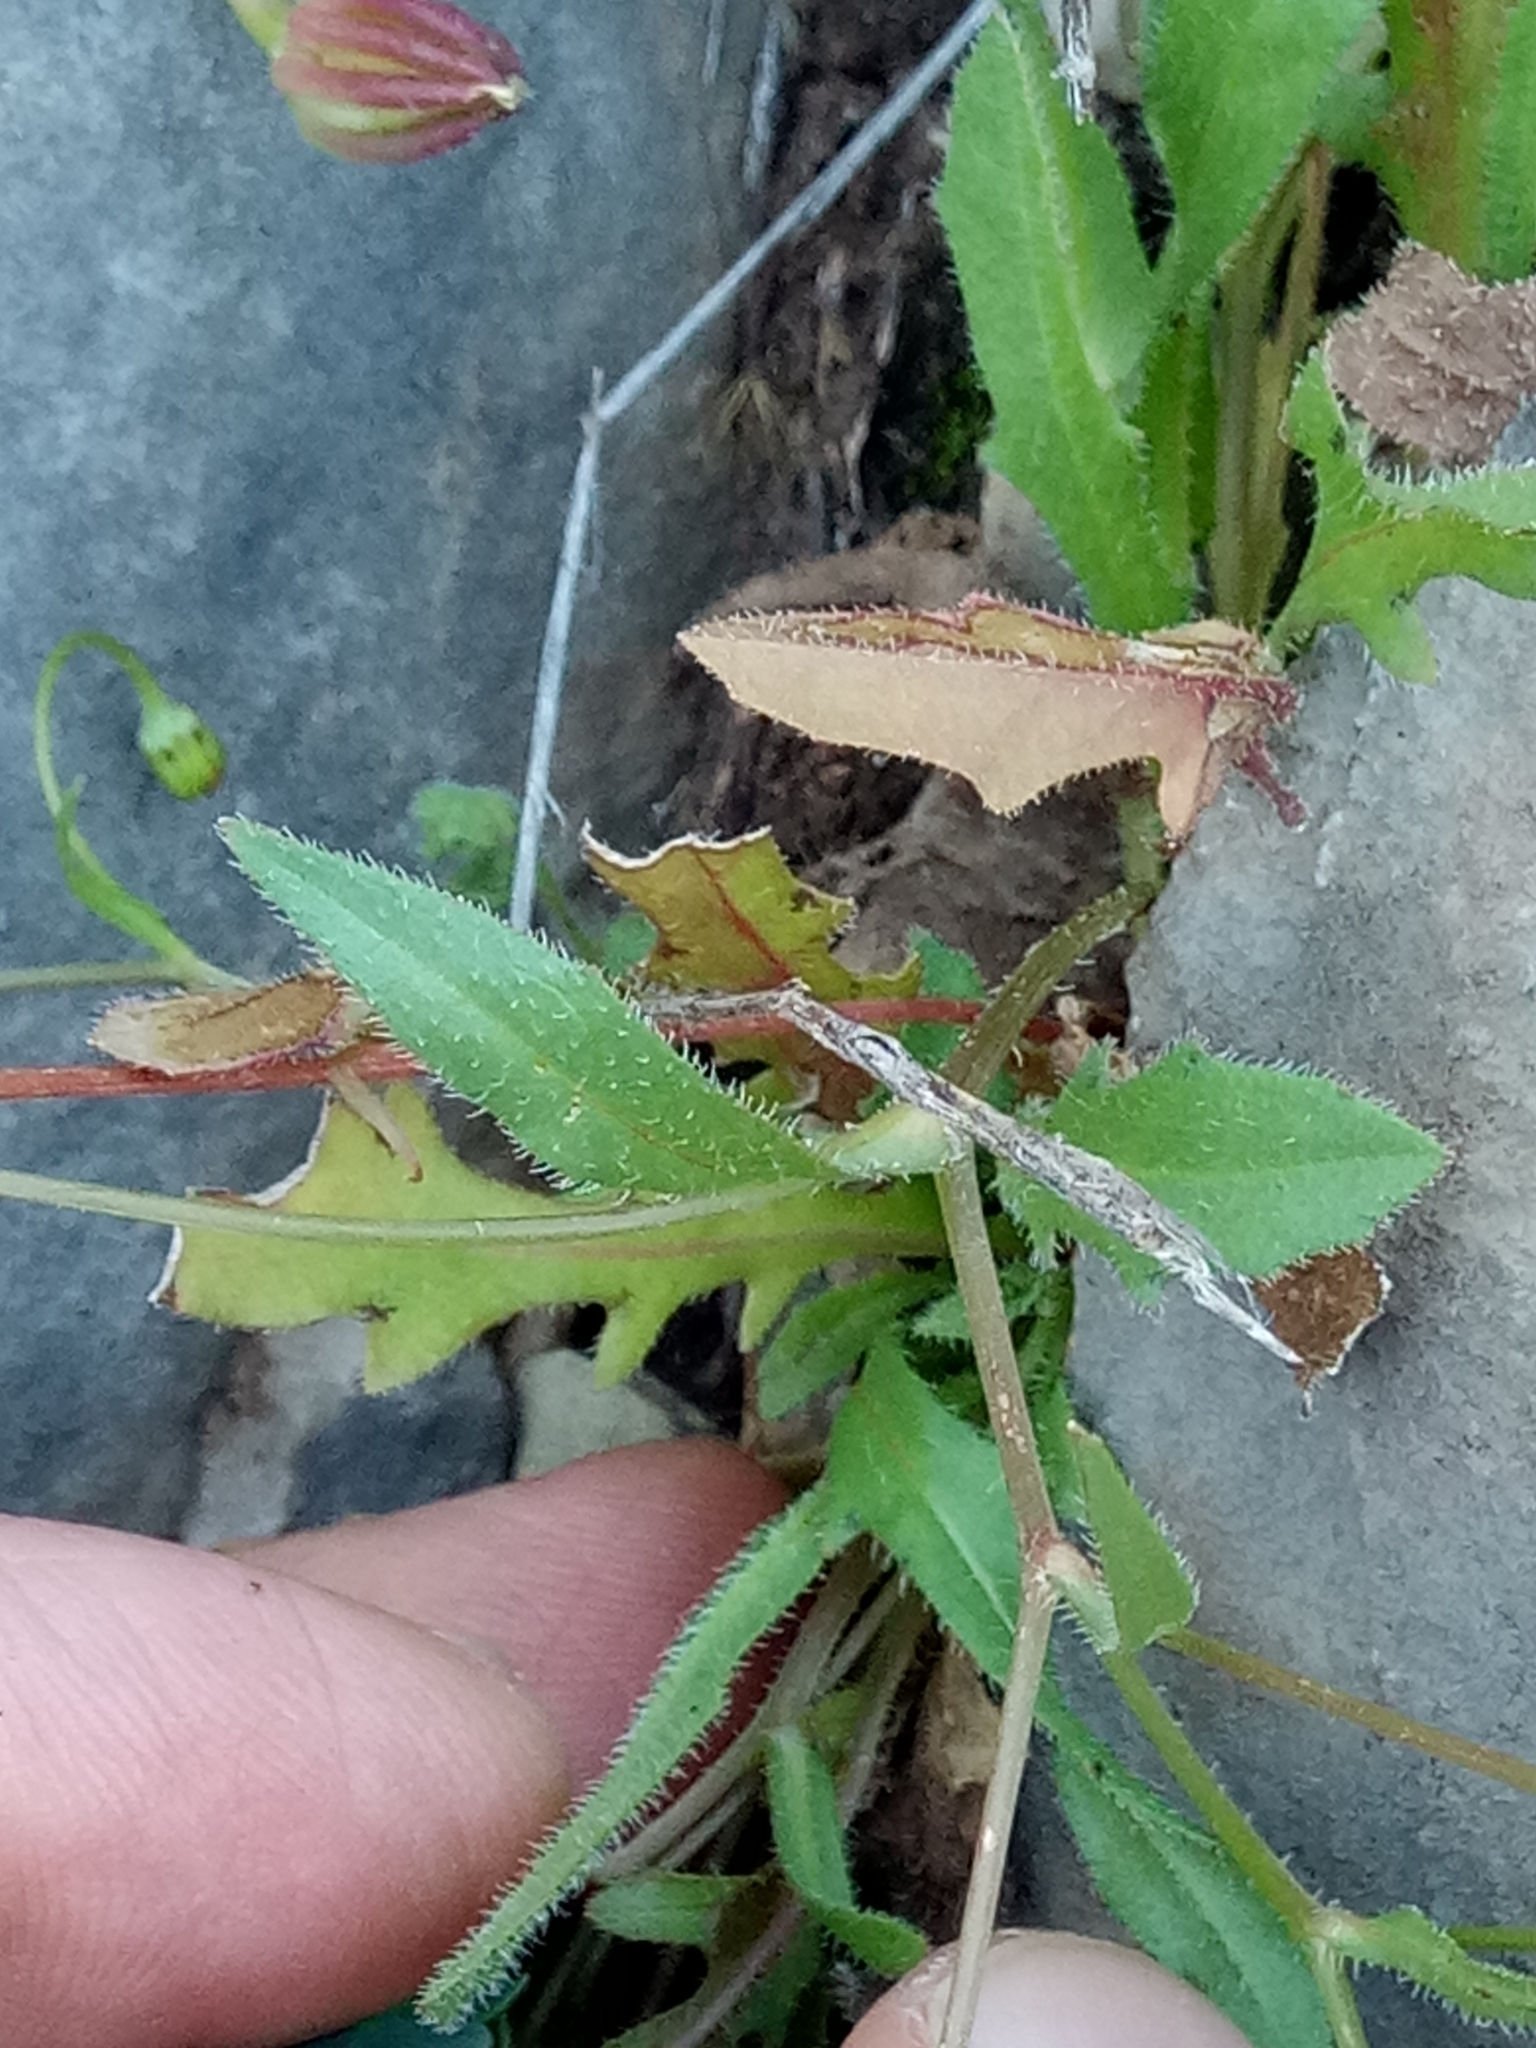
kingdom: Plantae
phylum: Tracheophyta
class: Magnoliopsida
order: Asterales
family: Asteraceae
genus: Hedypnois
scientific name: Hedypnois rhagadioloides
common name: Cretan weed
